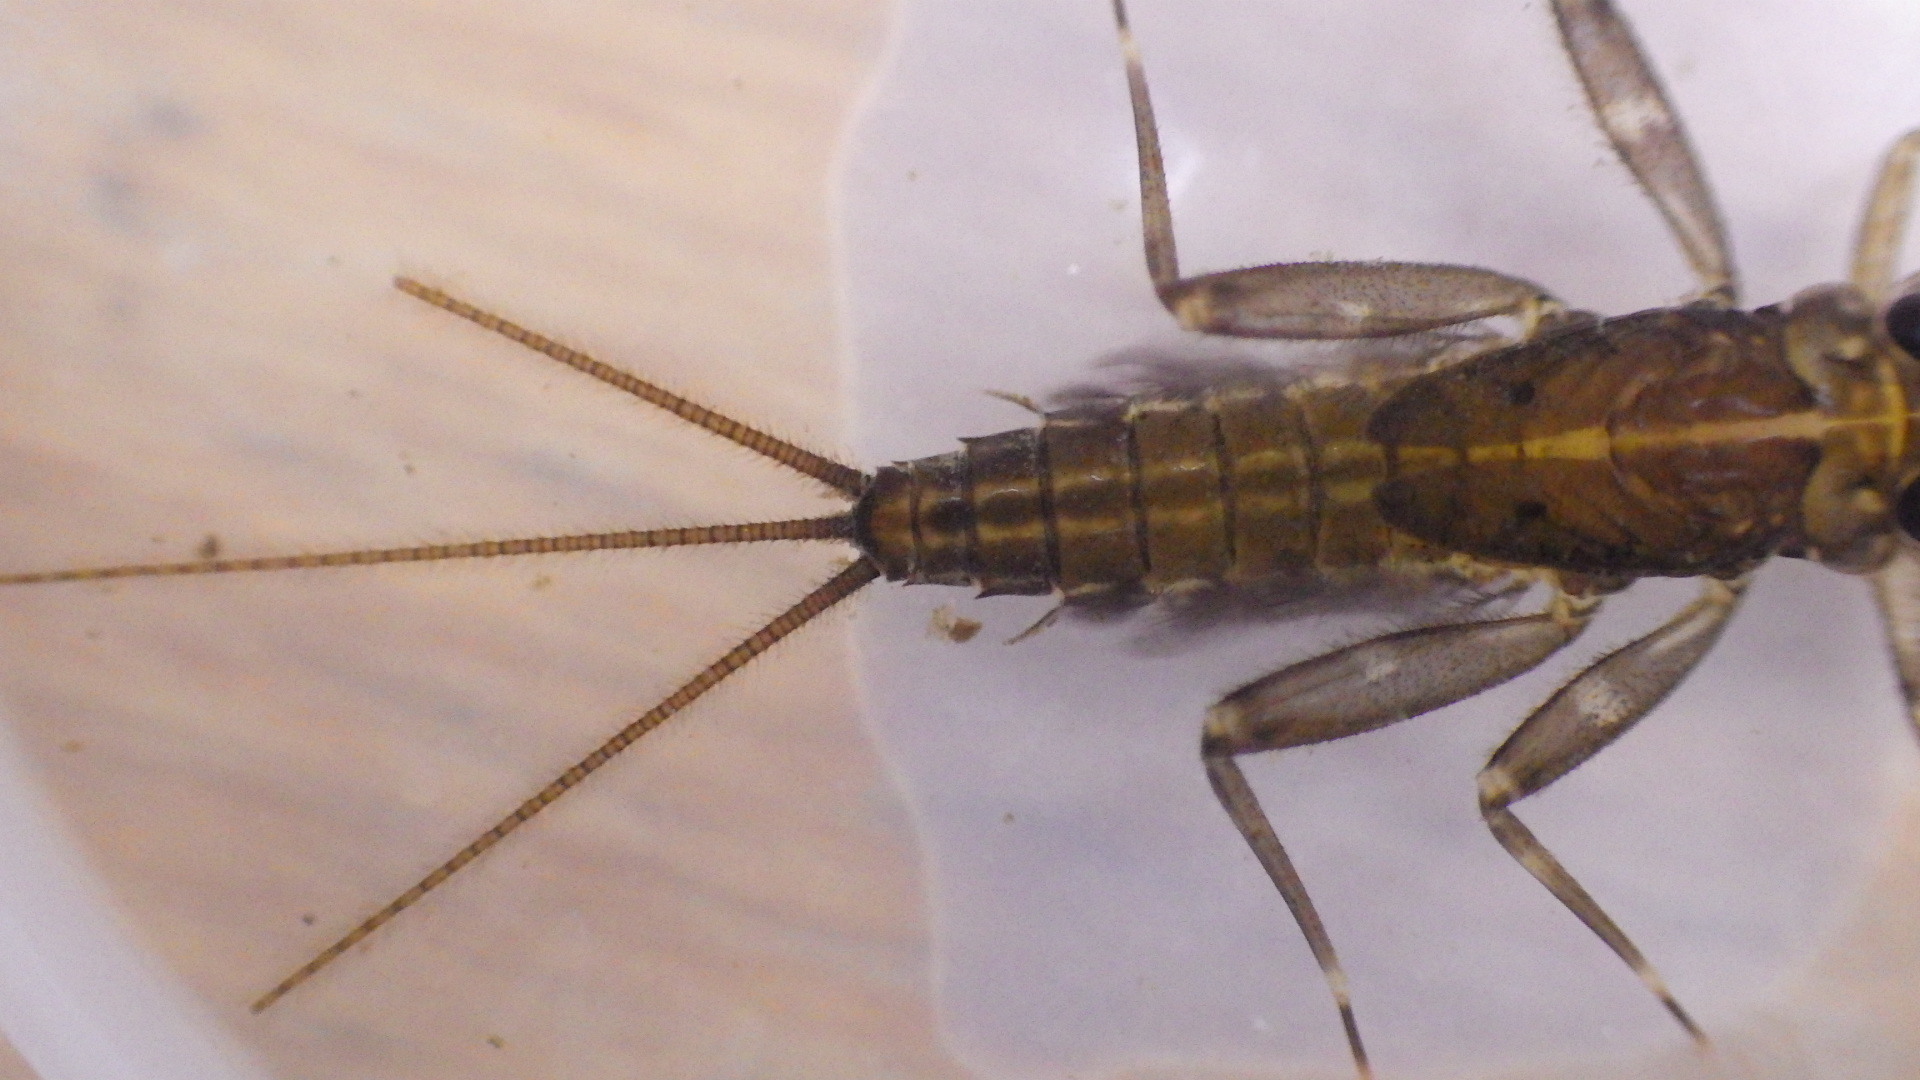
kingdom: Animalia
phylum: Arthropoda
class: Insecta
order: Ephemeroptera
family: Heptageniidae
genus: Stenacron
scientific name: Stenacron interpunctatum
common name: Orange cahill
